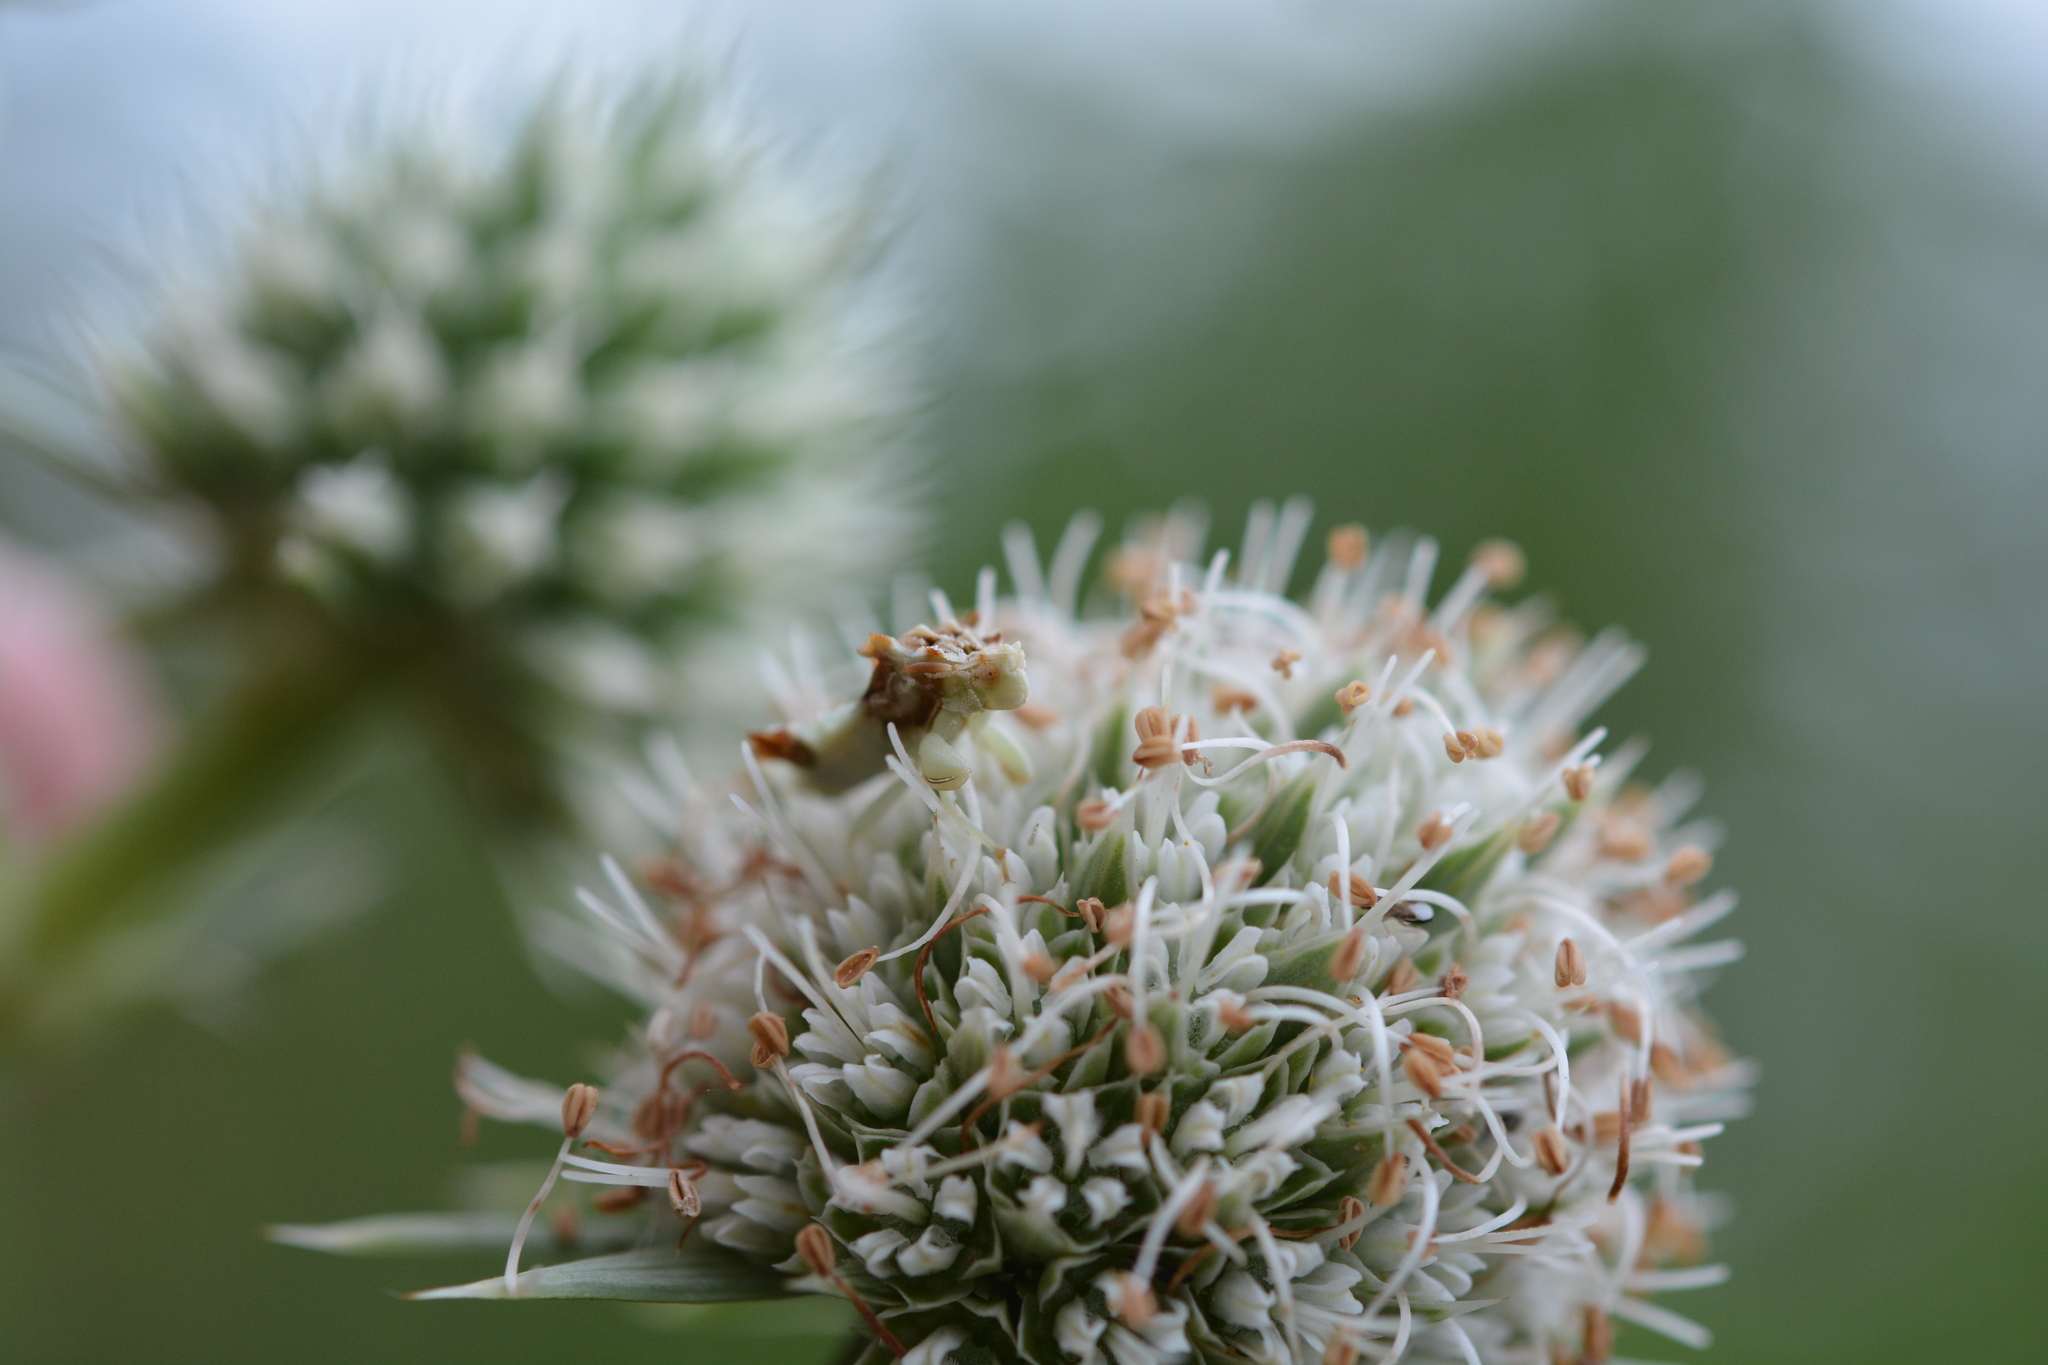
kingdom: Animalia
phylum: Arthropoda
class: Insecta
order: Hemiptera
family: Reduviidae
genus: Phymata
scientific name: Phymata fasciata
